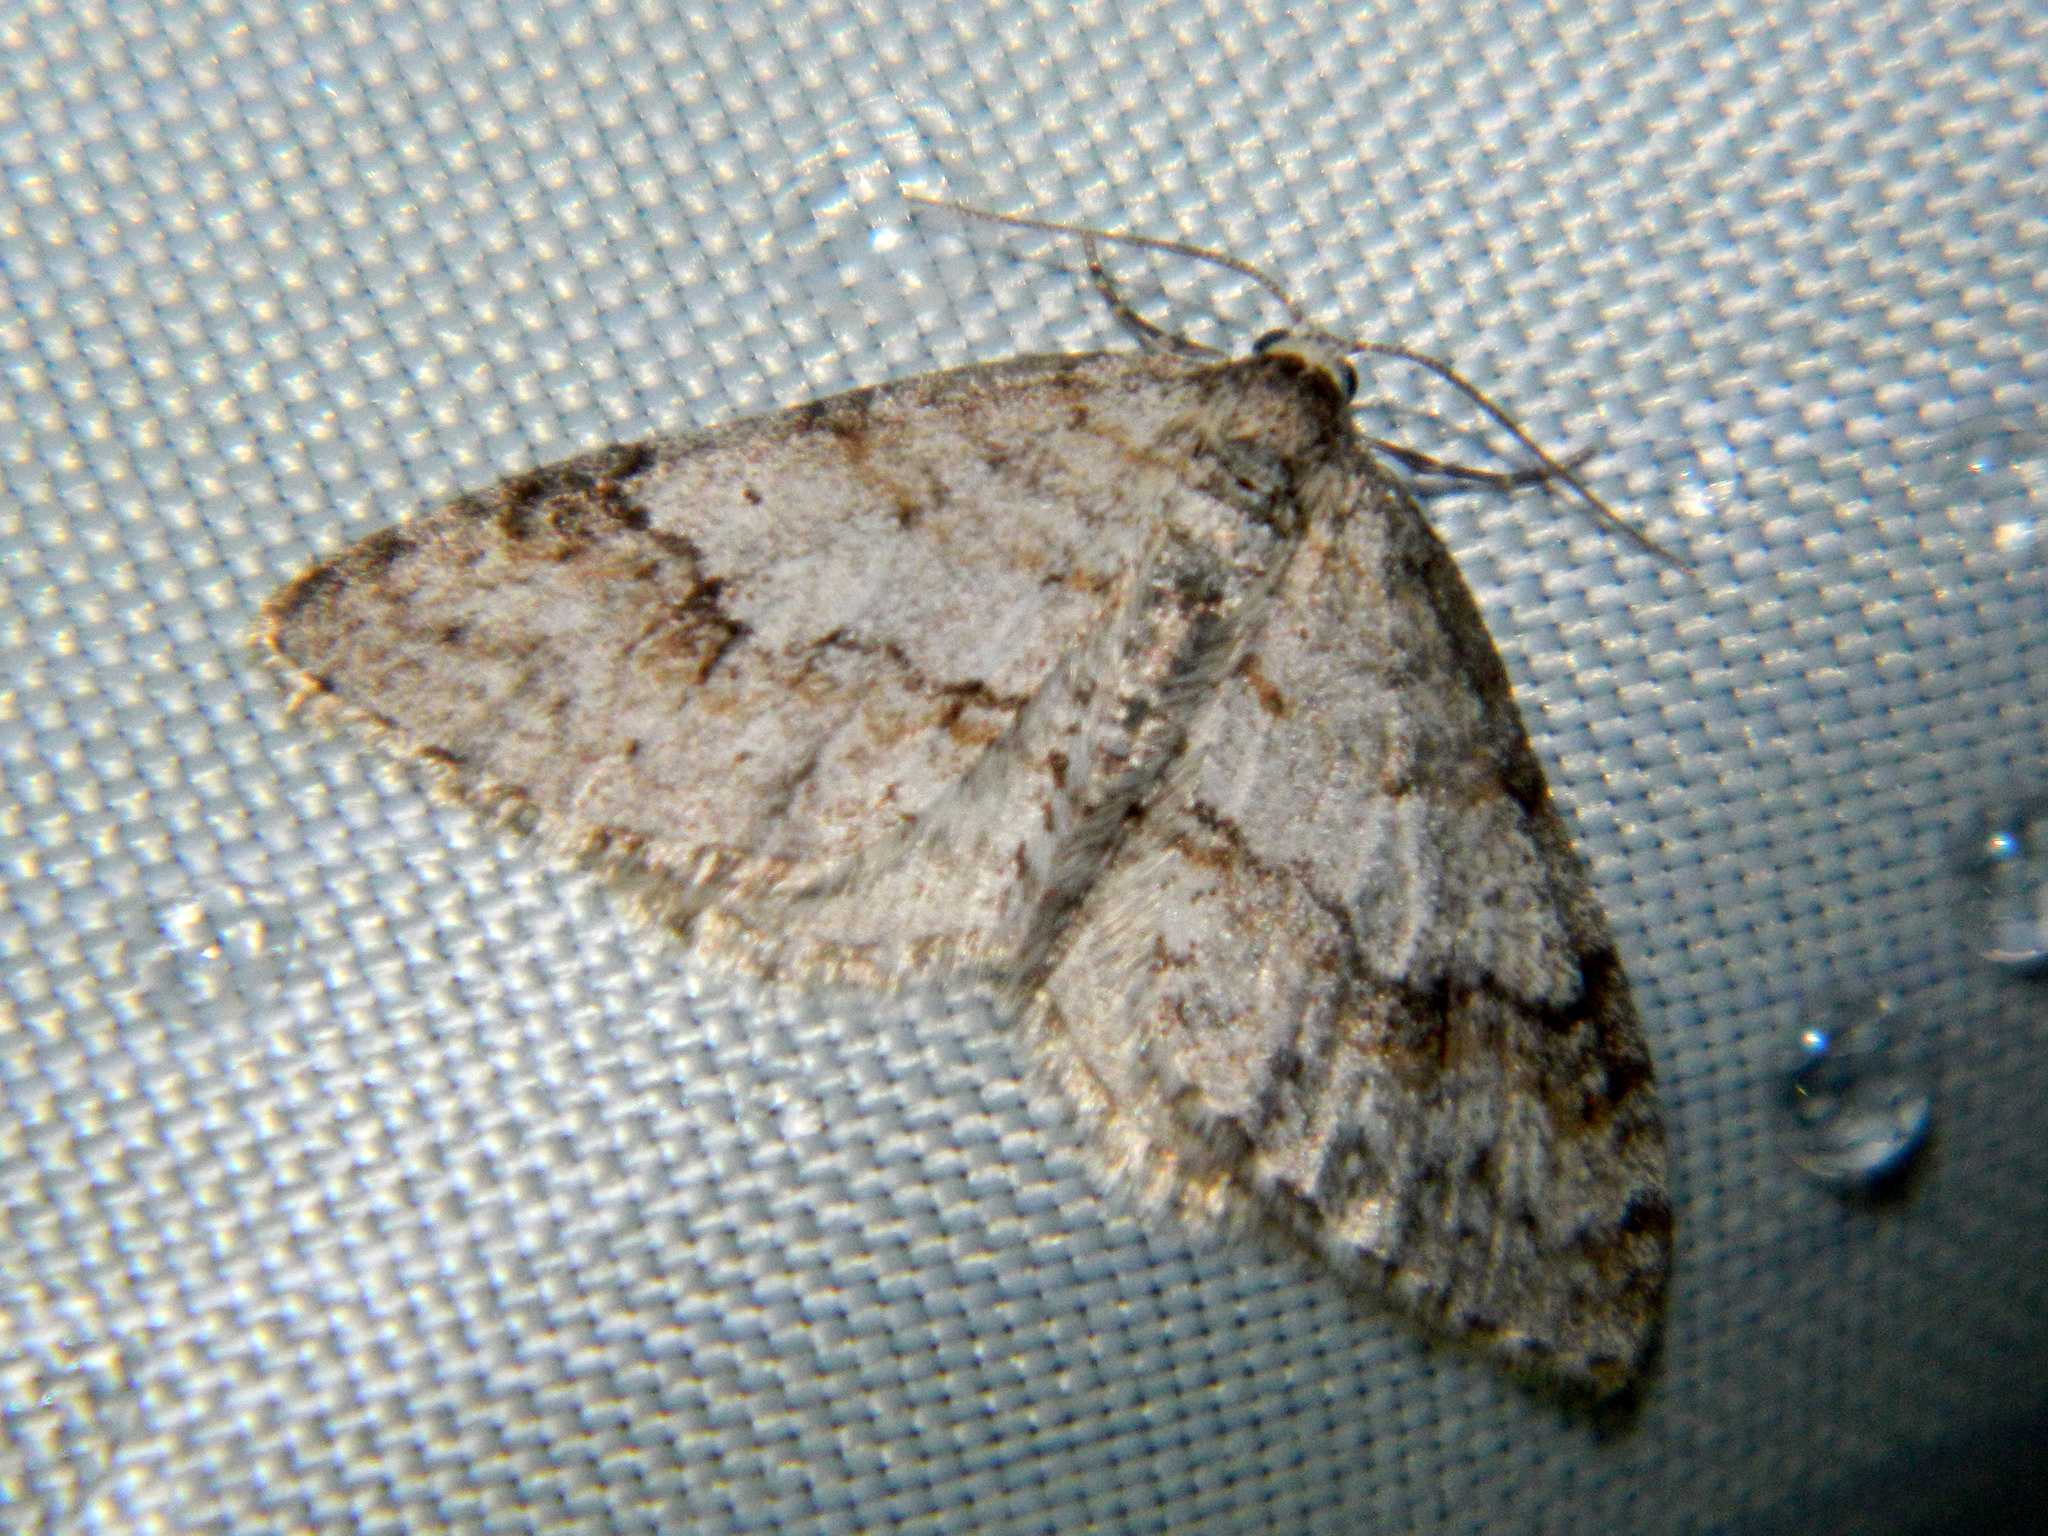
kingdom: Animalia
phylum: Arthropoda
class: Insecta
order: Lepidoptera
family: Geometridae
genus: Venusia
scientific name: Venusia comptaria
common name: Brown-shaded carpet
